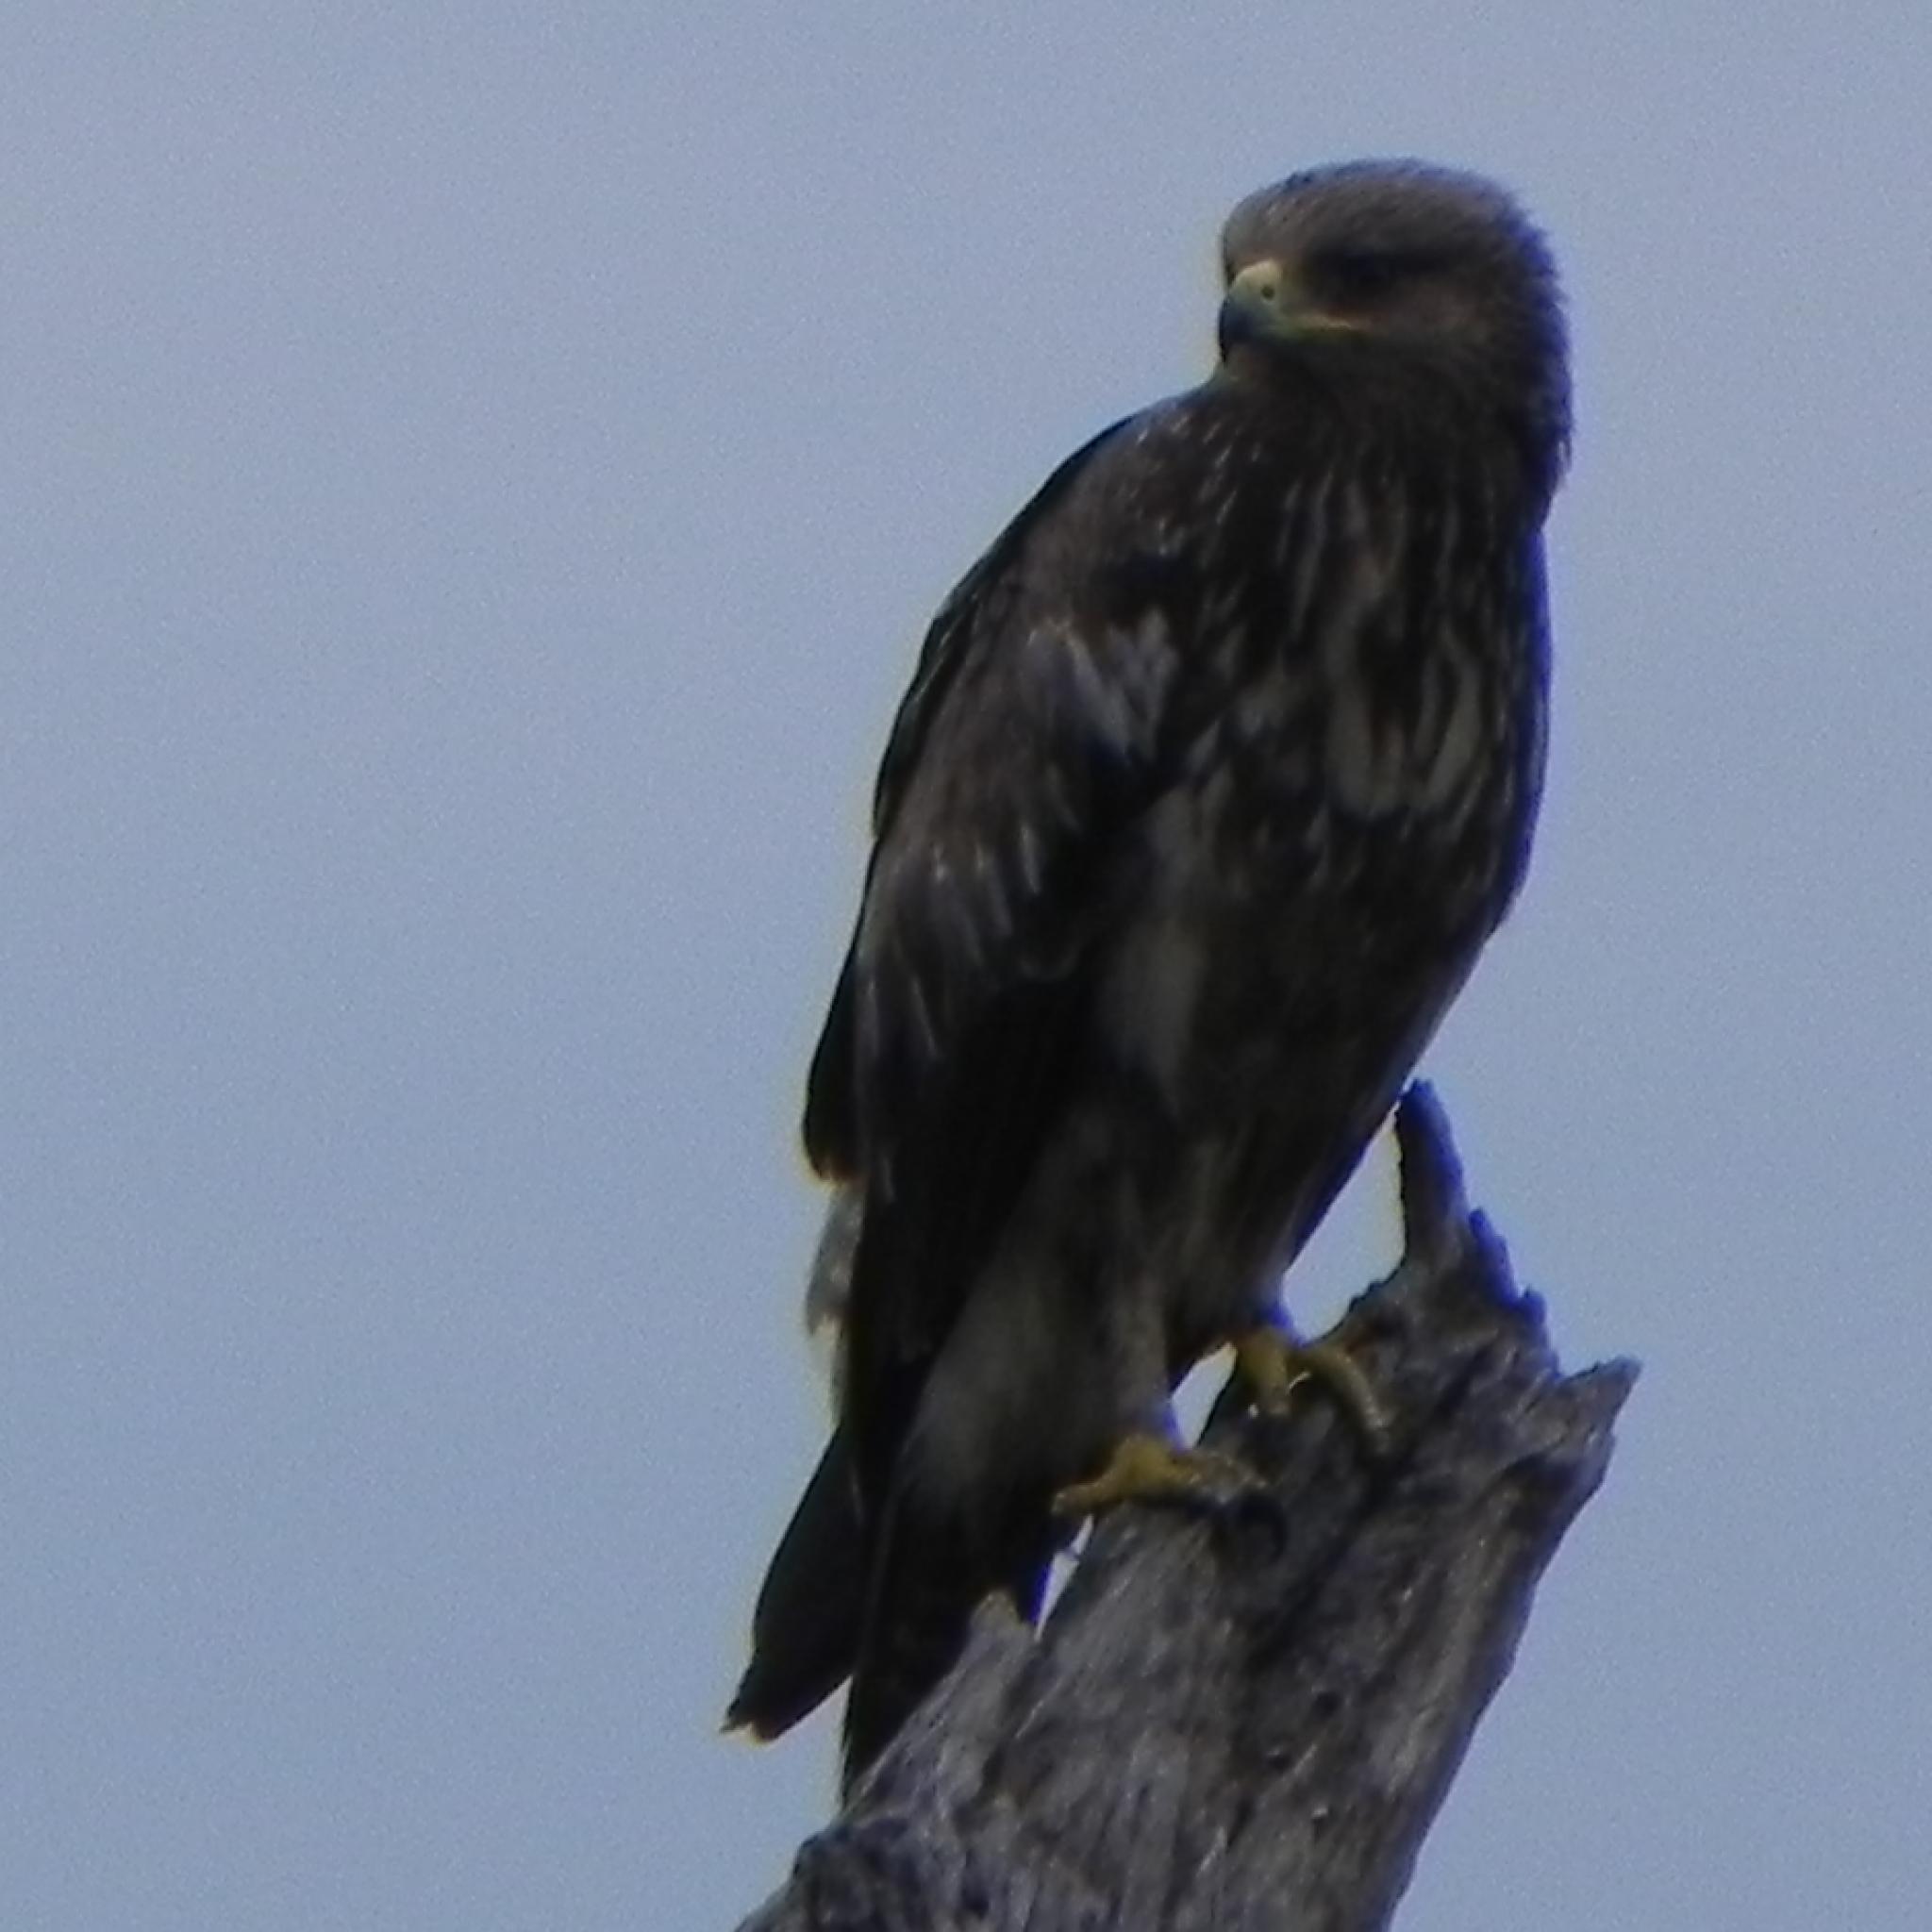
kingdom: Animalia
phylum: Chordata
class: Aves
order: Accipitriformes
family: Accipitridae
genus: Aquila
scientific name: Aquila pomarina
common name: Lesser spotted eagle
